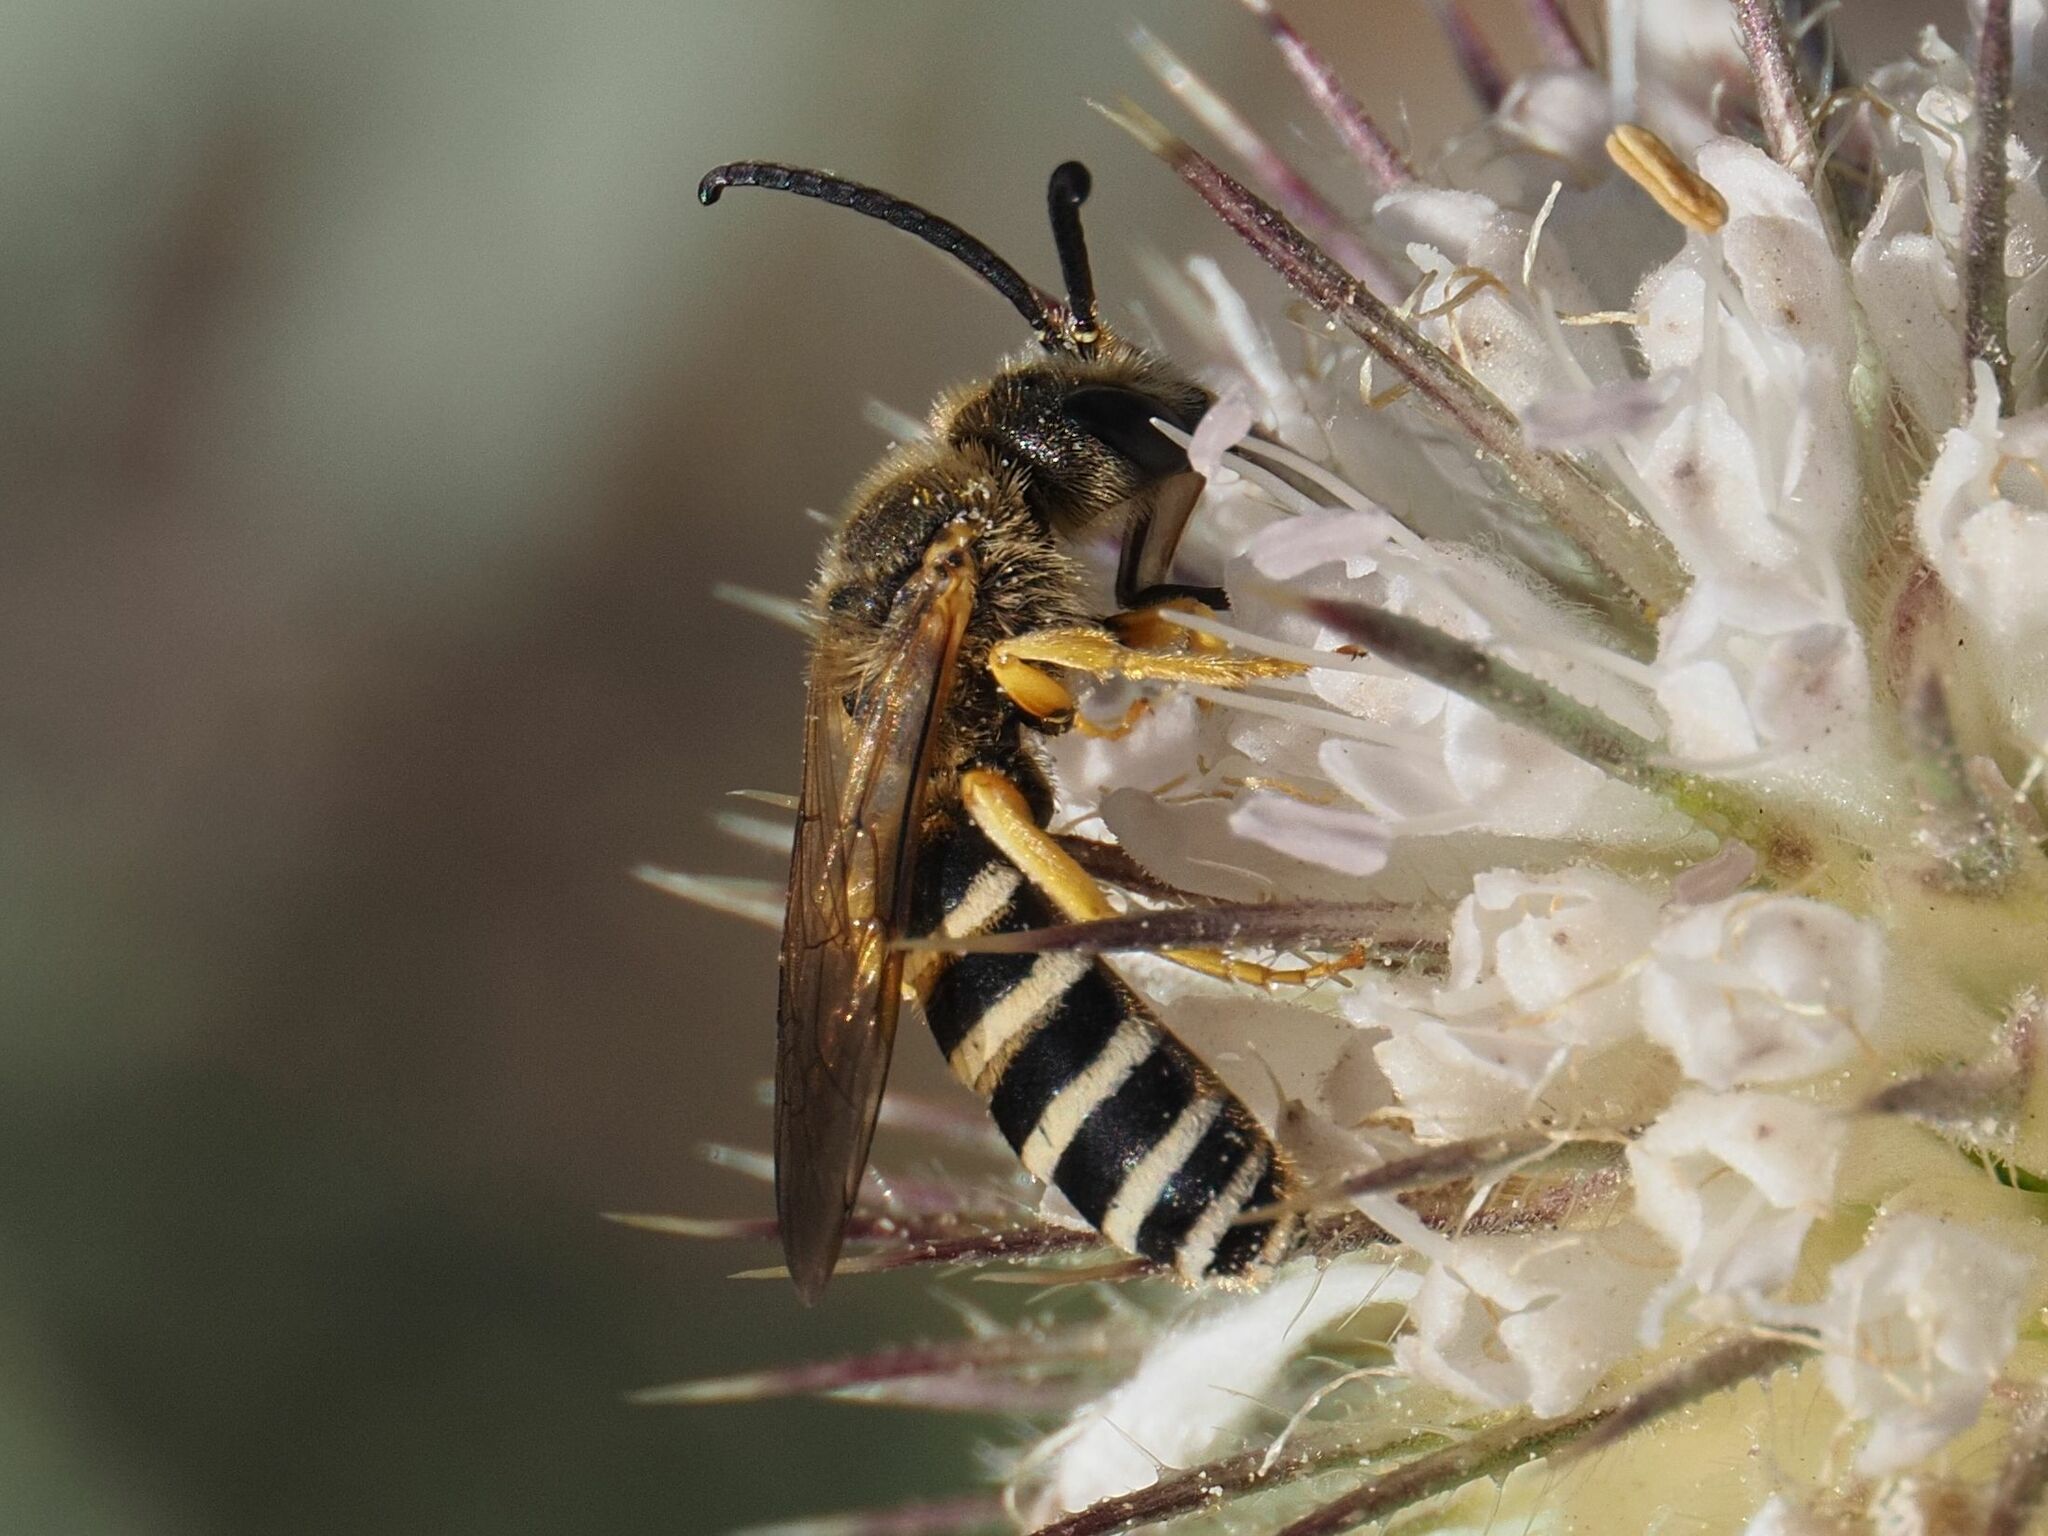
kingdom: Animalia
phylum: Arthropoda
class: Insecta
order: Hymenoptera
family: Halictidae
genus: Halictus
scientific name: Halictus scabiosae
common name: Great banded furrow bee
